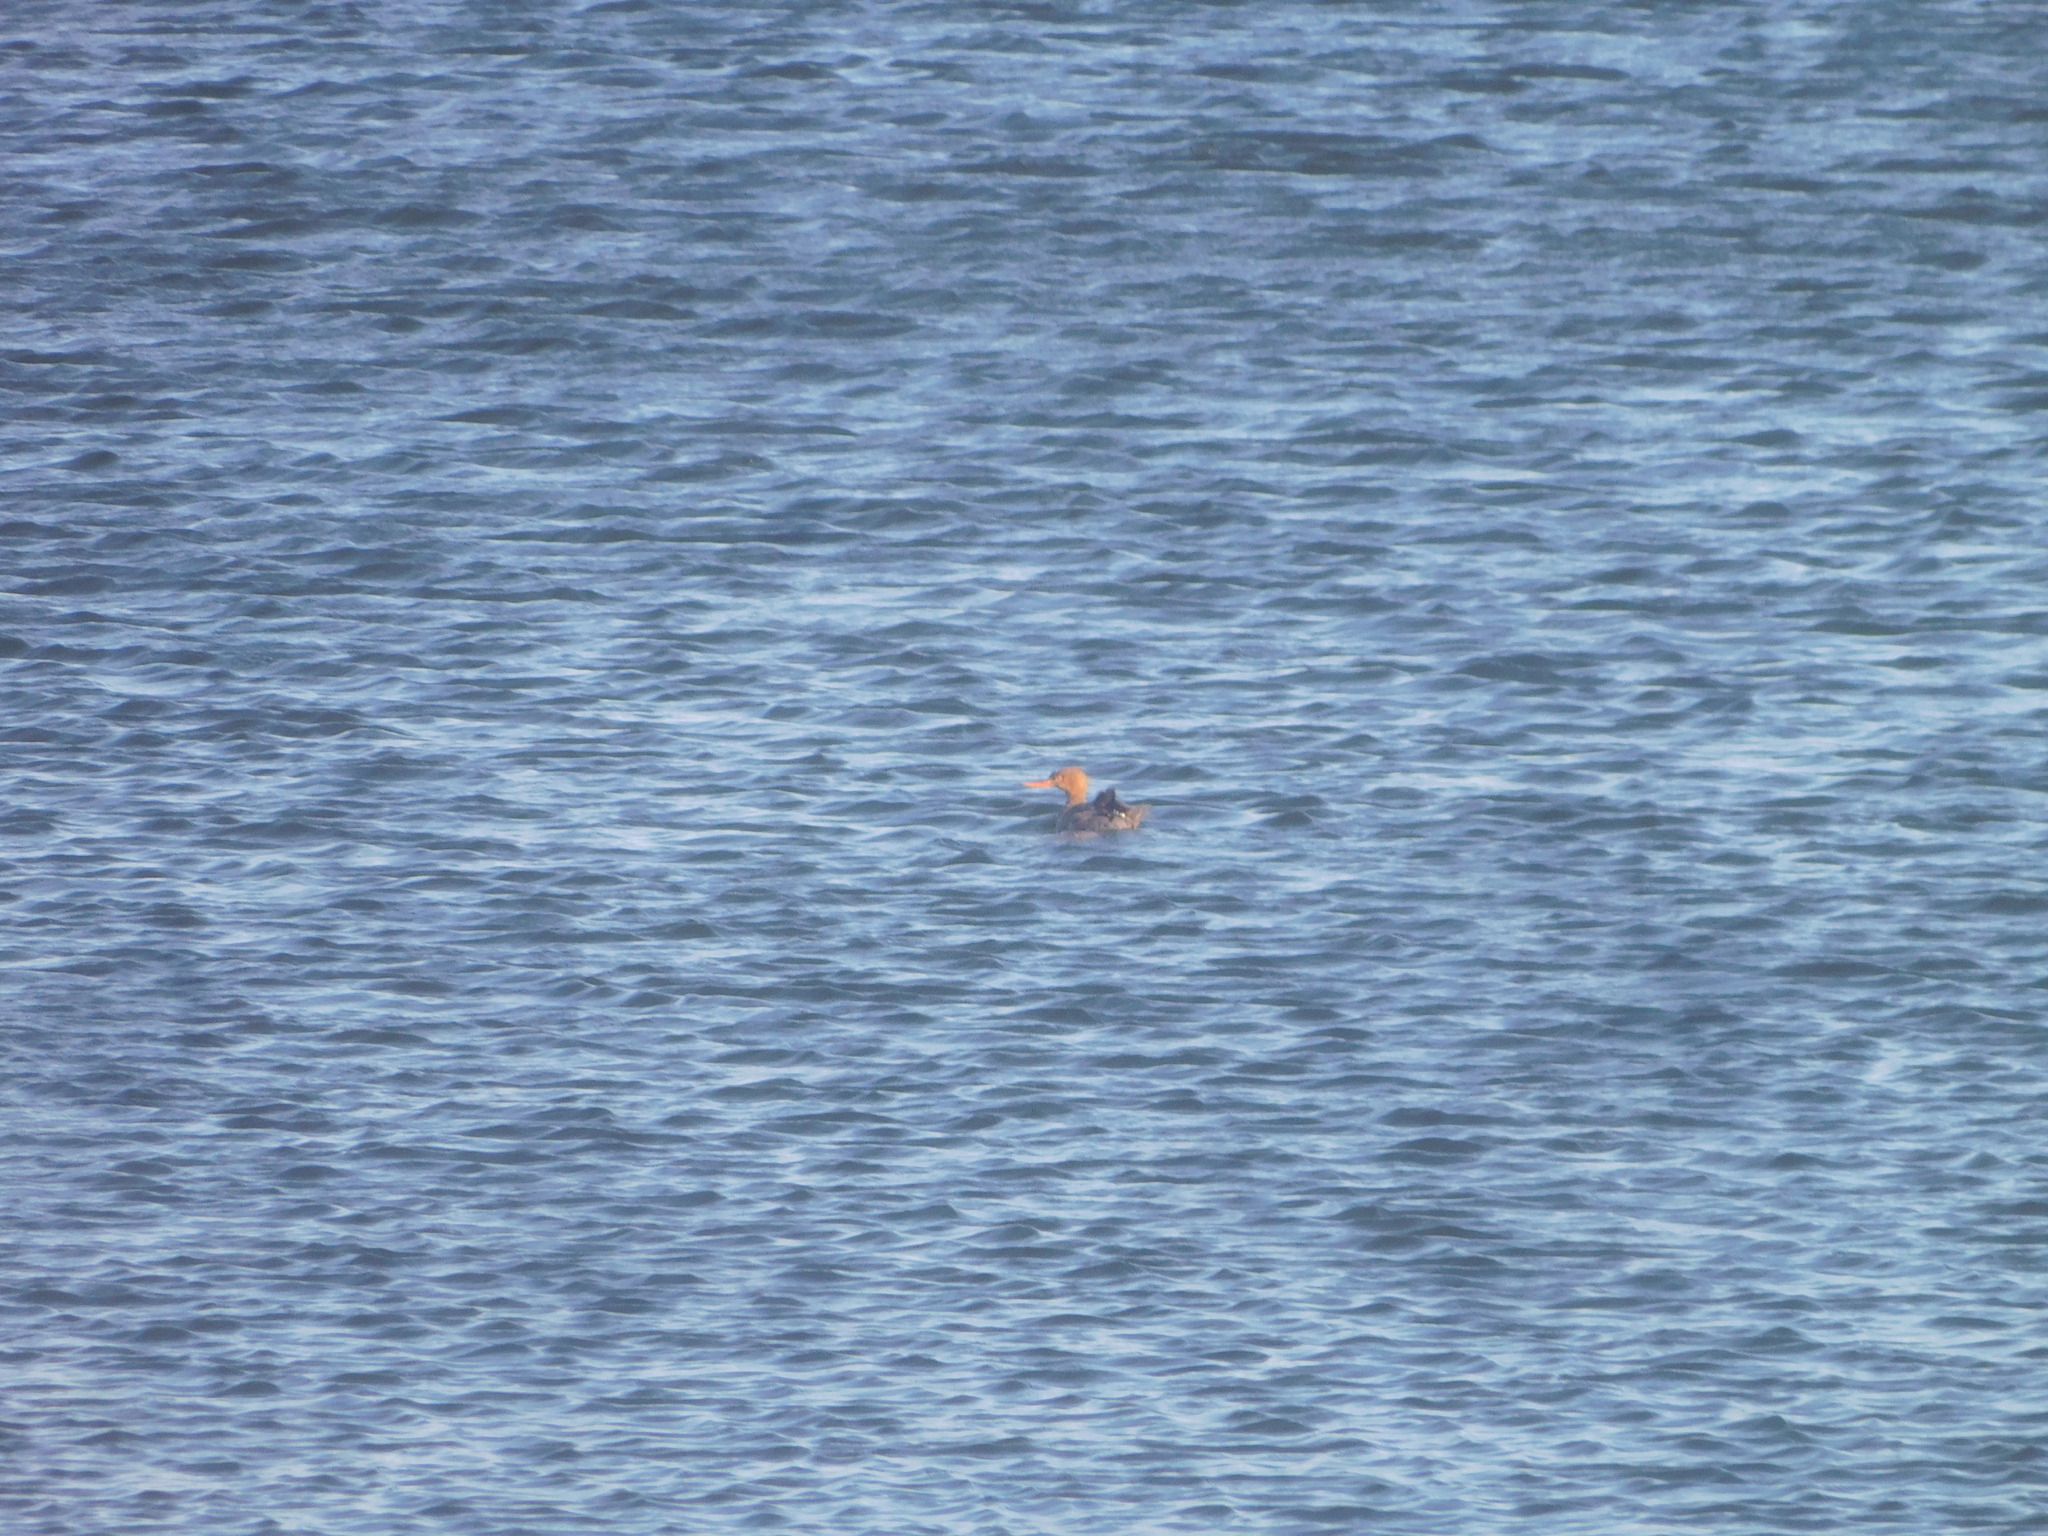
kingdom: Animalia
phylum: Chordata
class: Aves
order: Anseriformes
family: Anatidae
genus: Mergus
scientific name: Mergus serrator
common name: Red-breasted merganser
